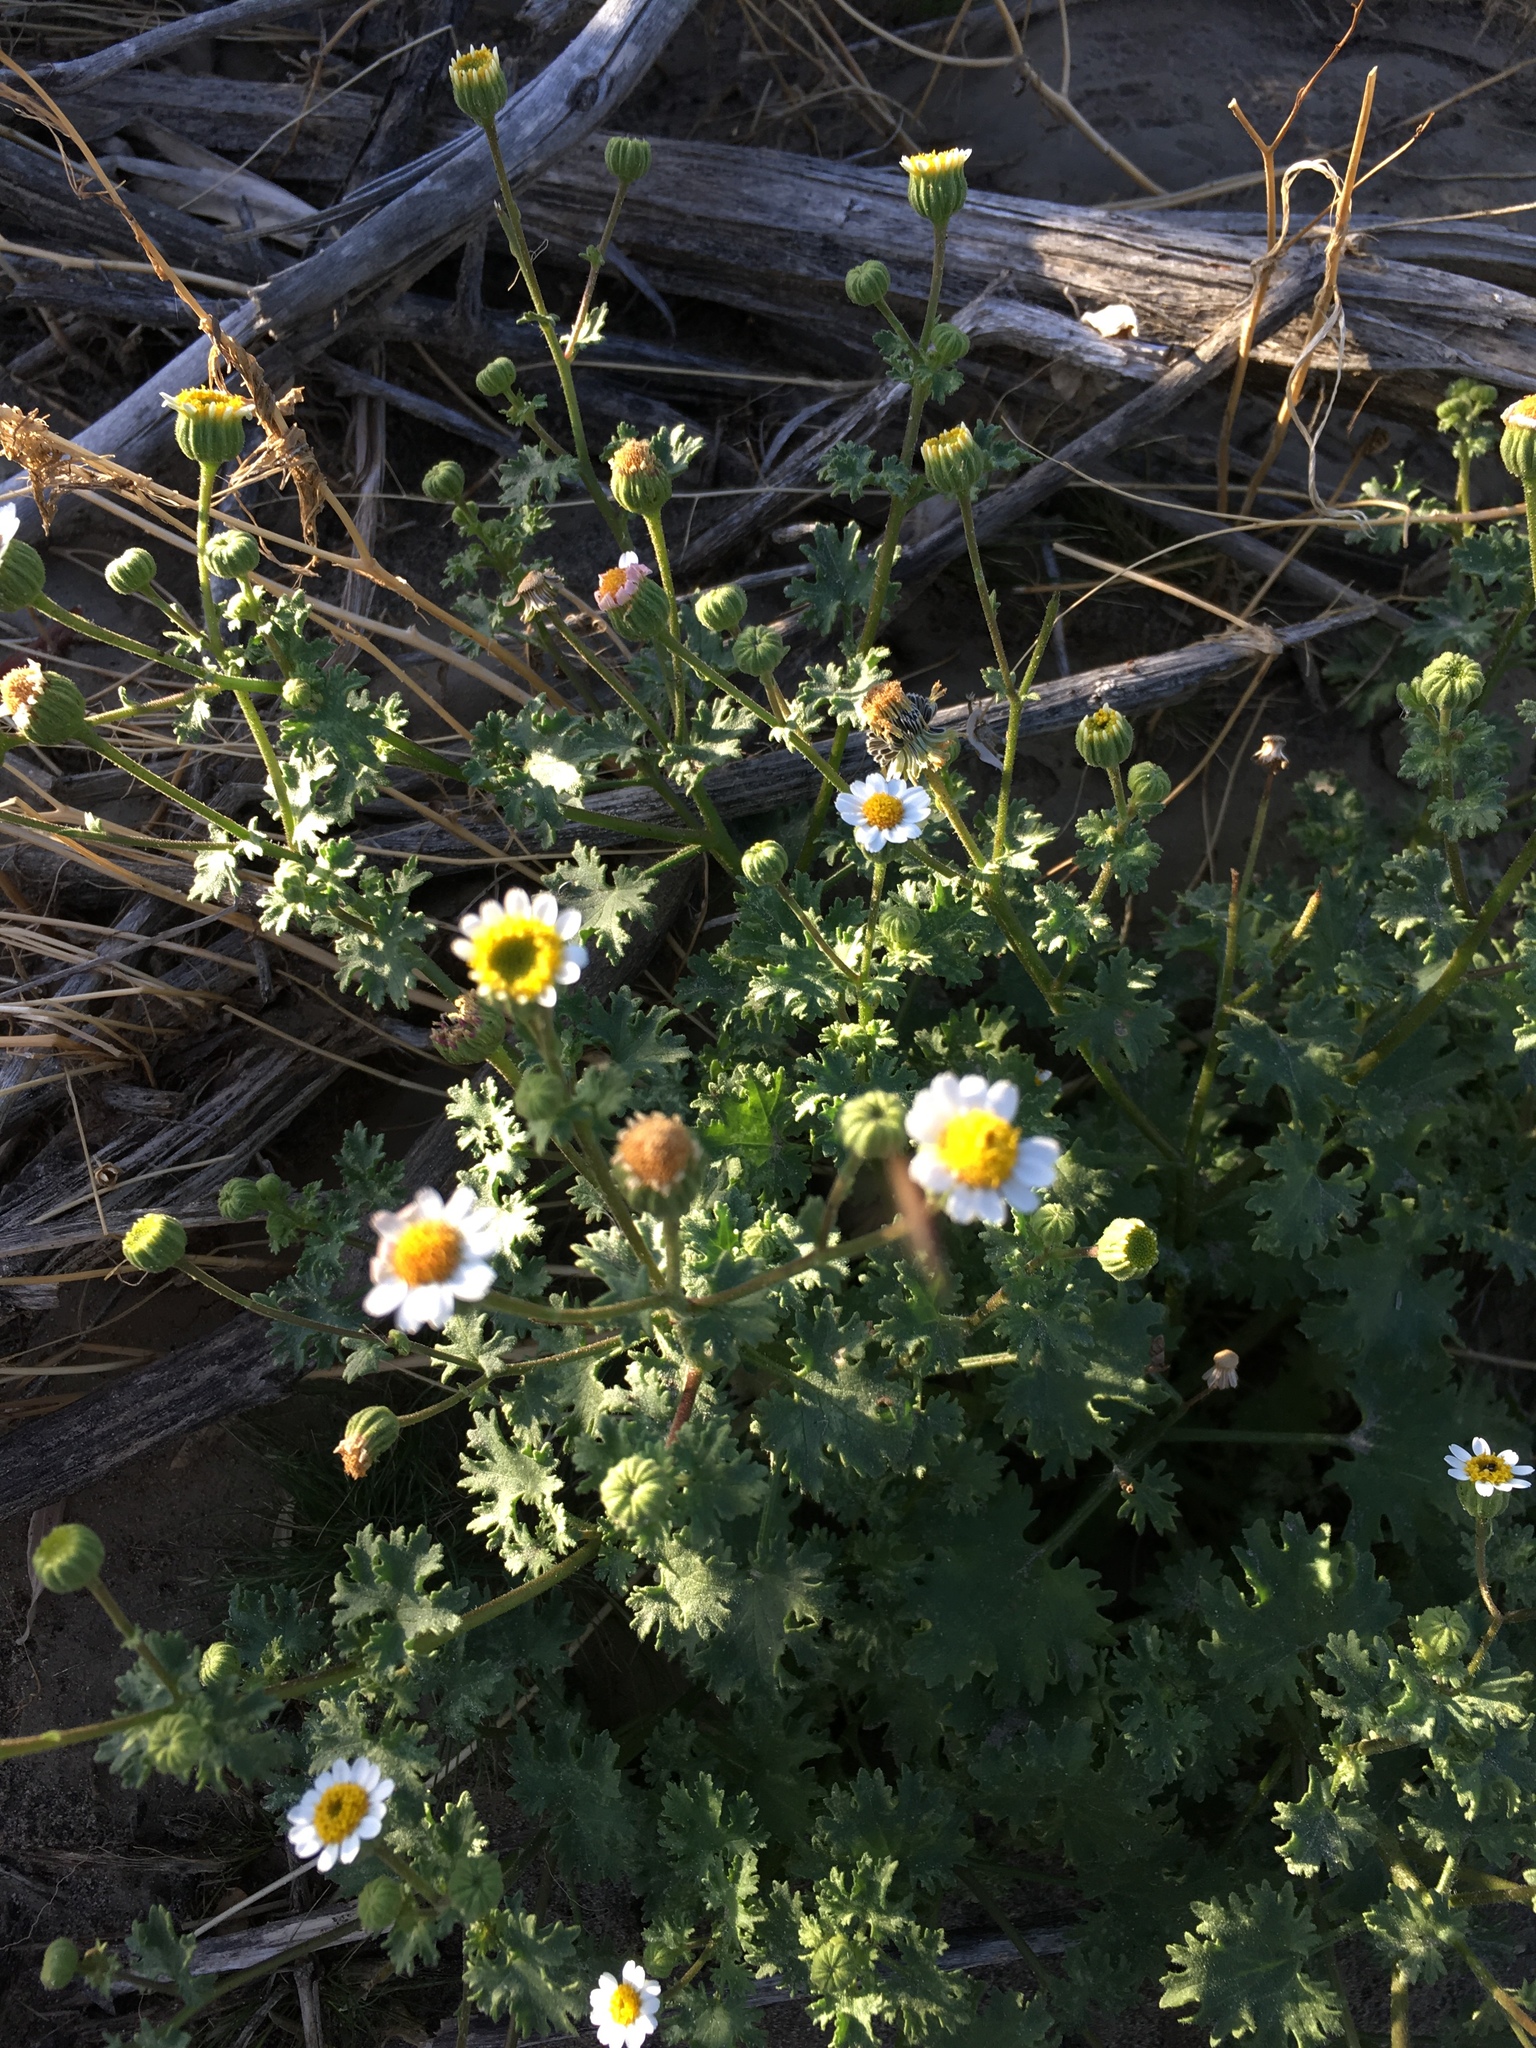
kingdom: Plantae
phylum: Tracheophyta
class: Magnoliopsida
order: Asterales
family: Asteraceae
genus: Laphamia
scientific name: Laphamia emoryi
